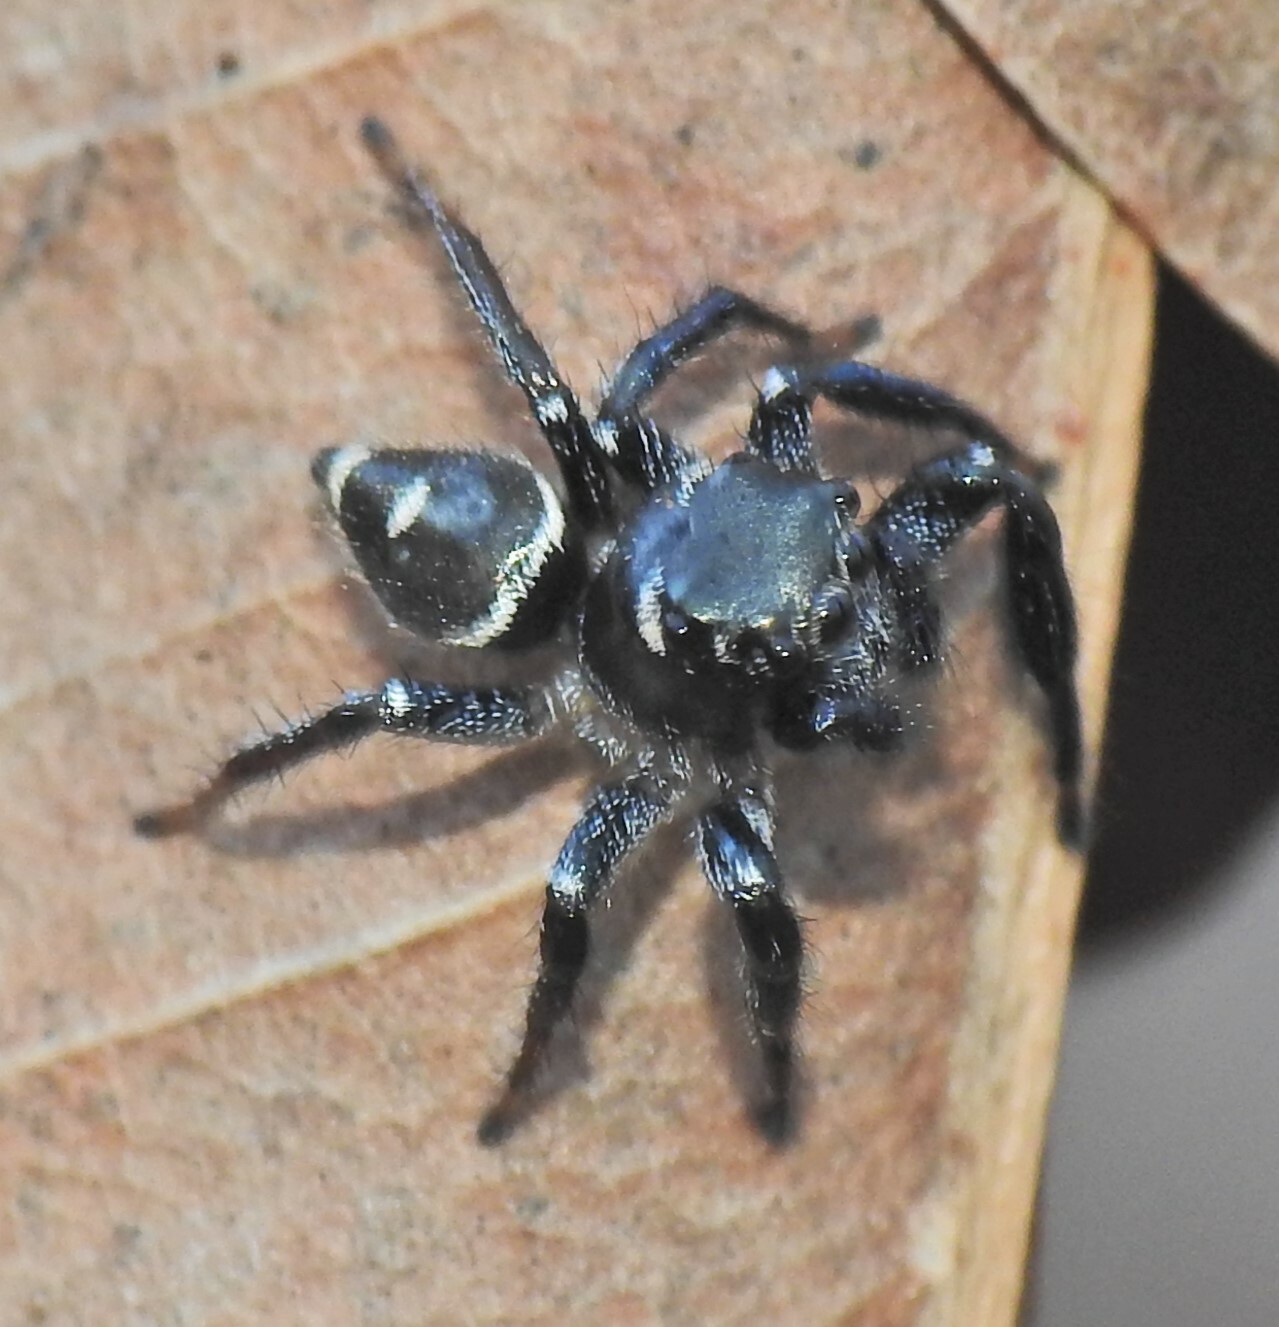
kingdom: Animalia
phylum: Arthropoda
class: Arachnida
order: Araneae
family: Salticidae
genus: Zenodorus
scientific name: Zenodorus orbiculatus
